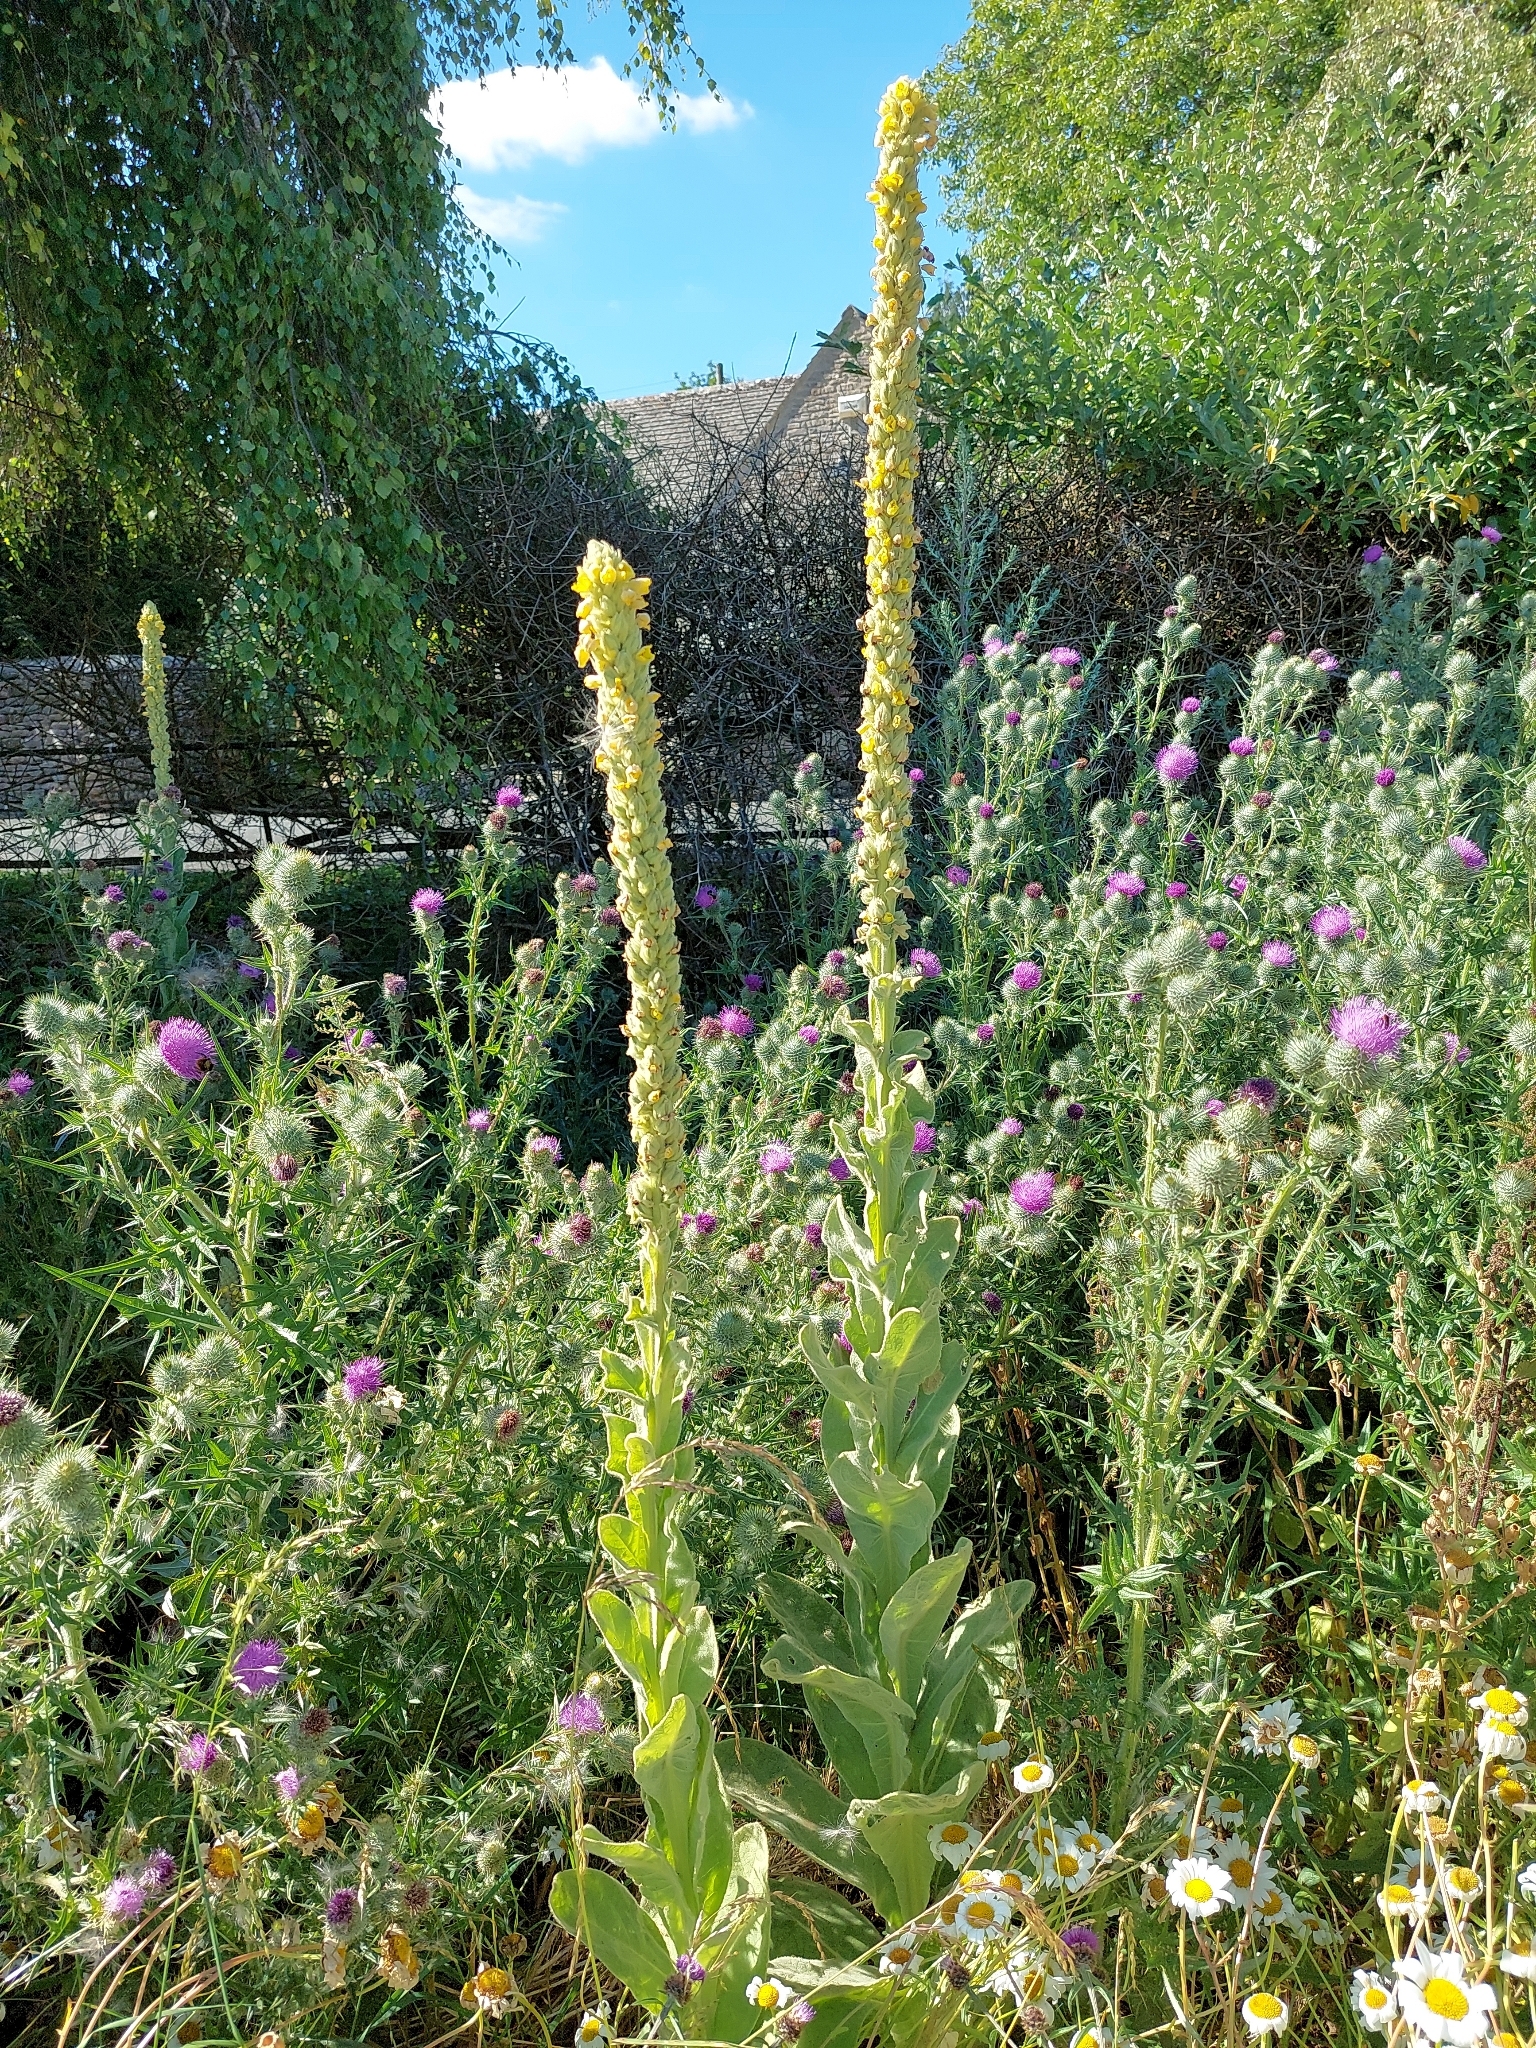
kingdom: Plantae
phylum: Tracheophyta
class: Magnoliopsida
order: Lamiales
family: Scrophulariaceae
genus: Verbascum
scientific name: Verbascum thapsus
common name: Common mullein
